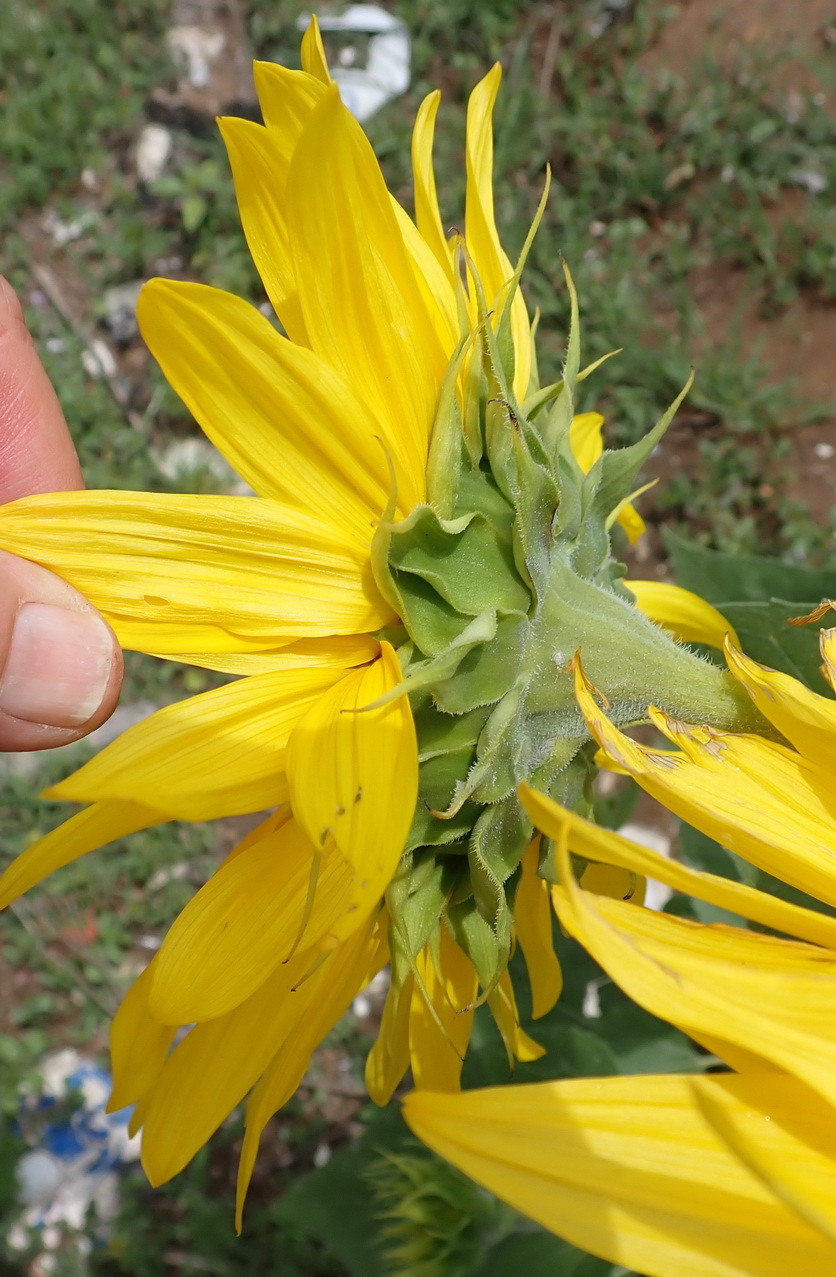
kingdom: Plantae
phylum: Tracheophyta
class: Magnoliopsida
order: Asterales
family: Asteraceae
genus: Helianthus
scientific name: Helianthus annuus
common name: Sunflower
